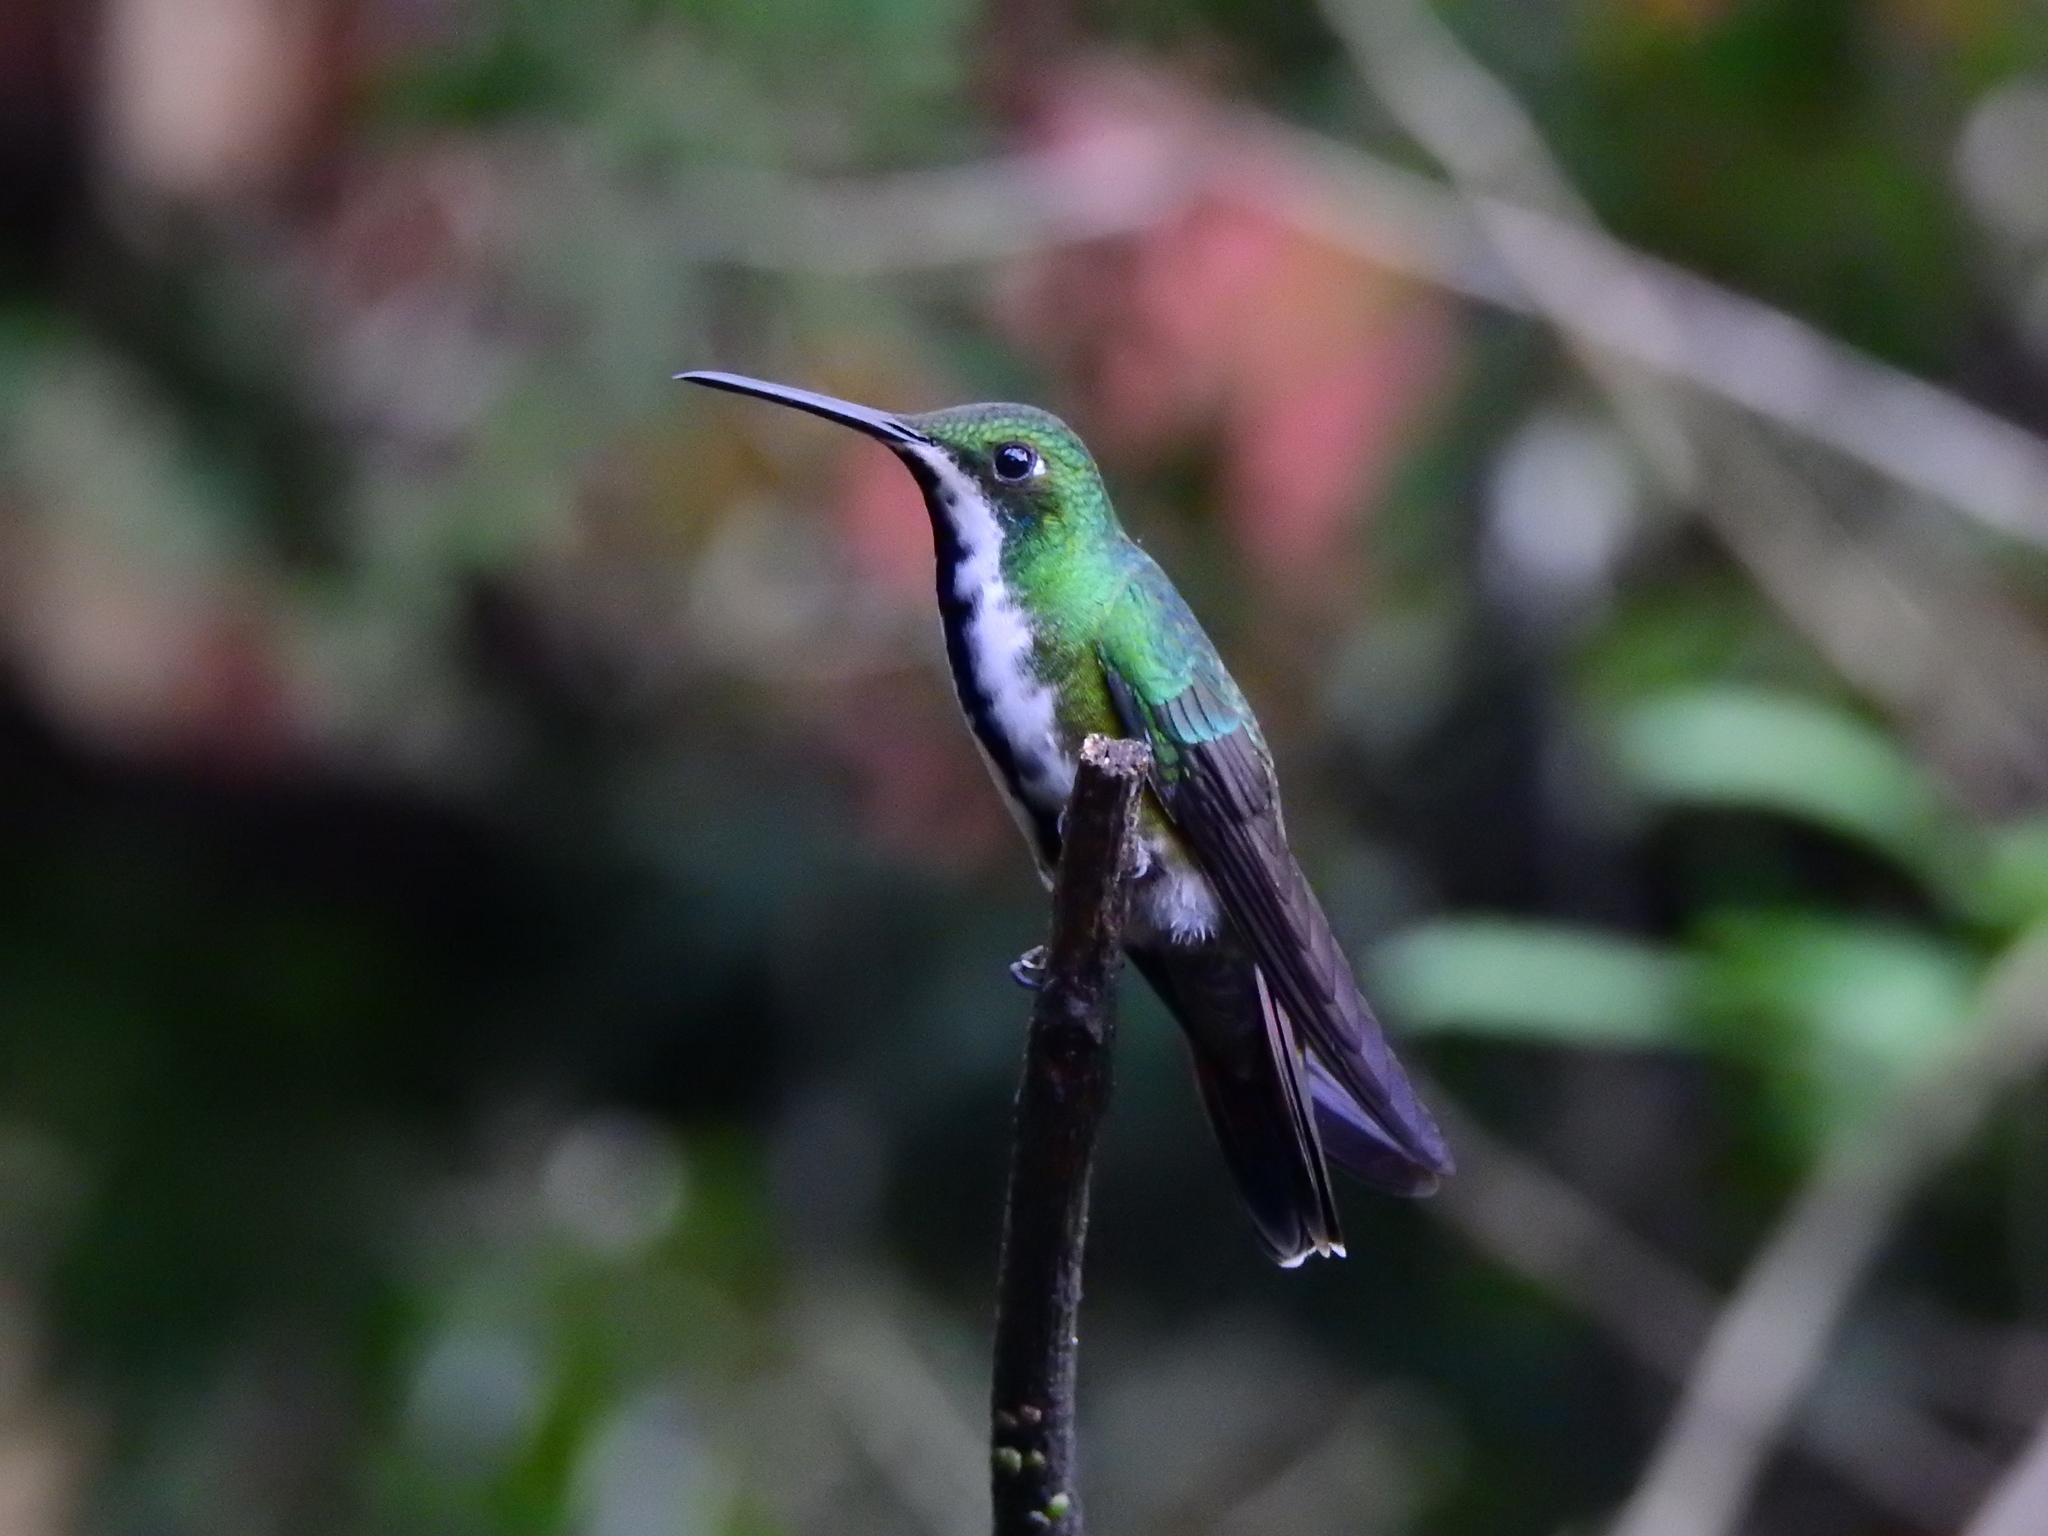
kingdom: Animalia
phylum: Chordata
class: Aves
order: Apodiformes
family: Trochilidae
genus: Anthracothorax
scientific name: Anthracothorax nigricollis
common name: Black-throated mango
